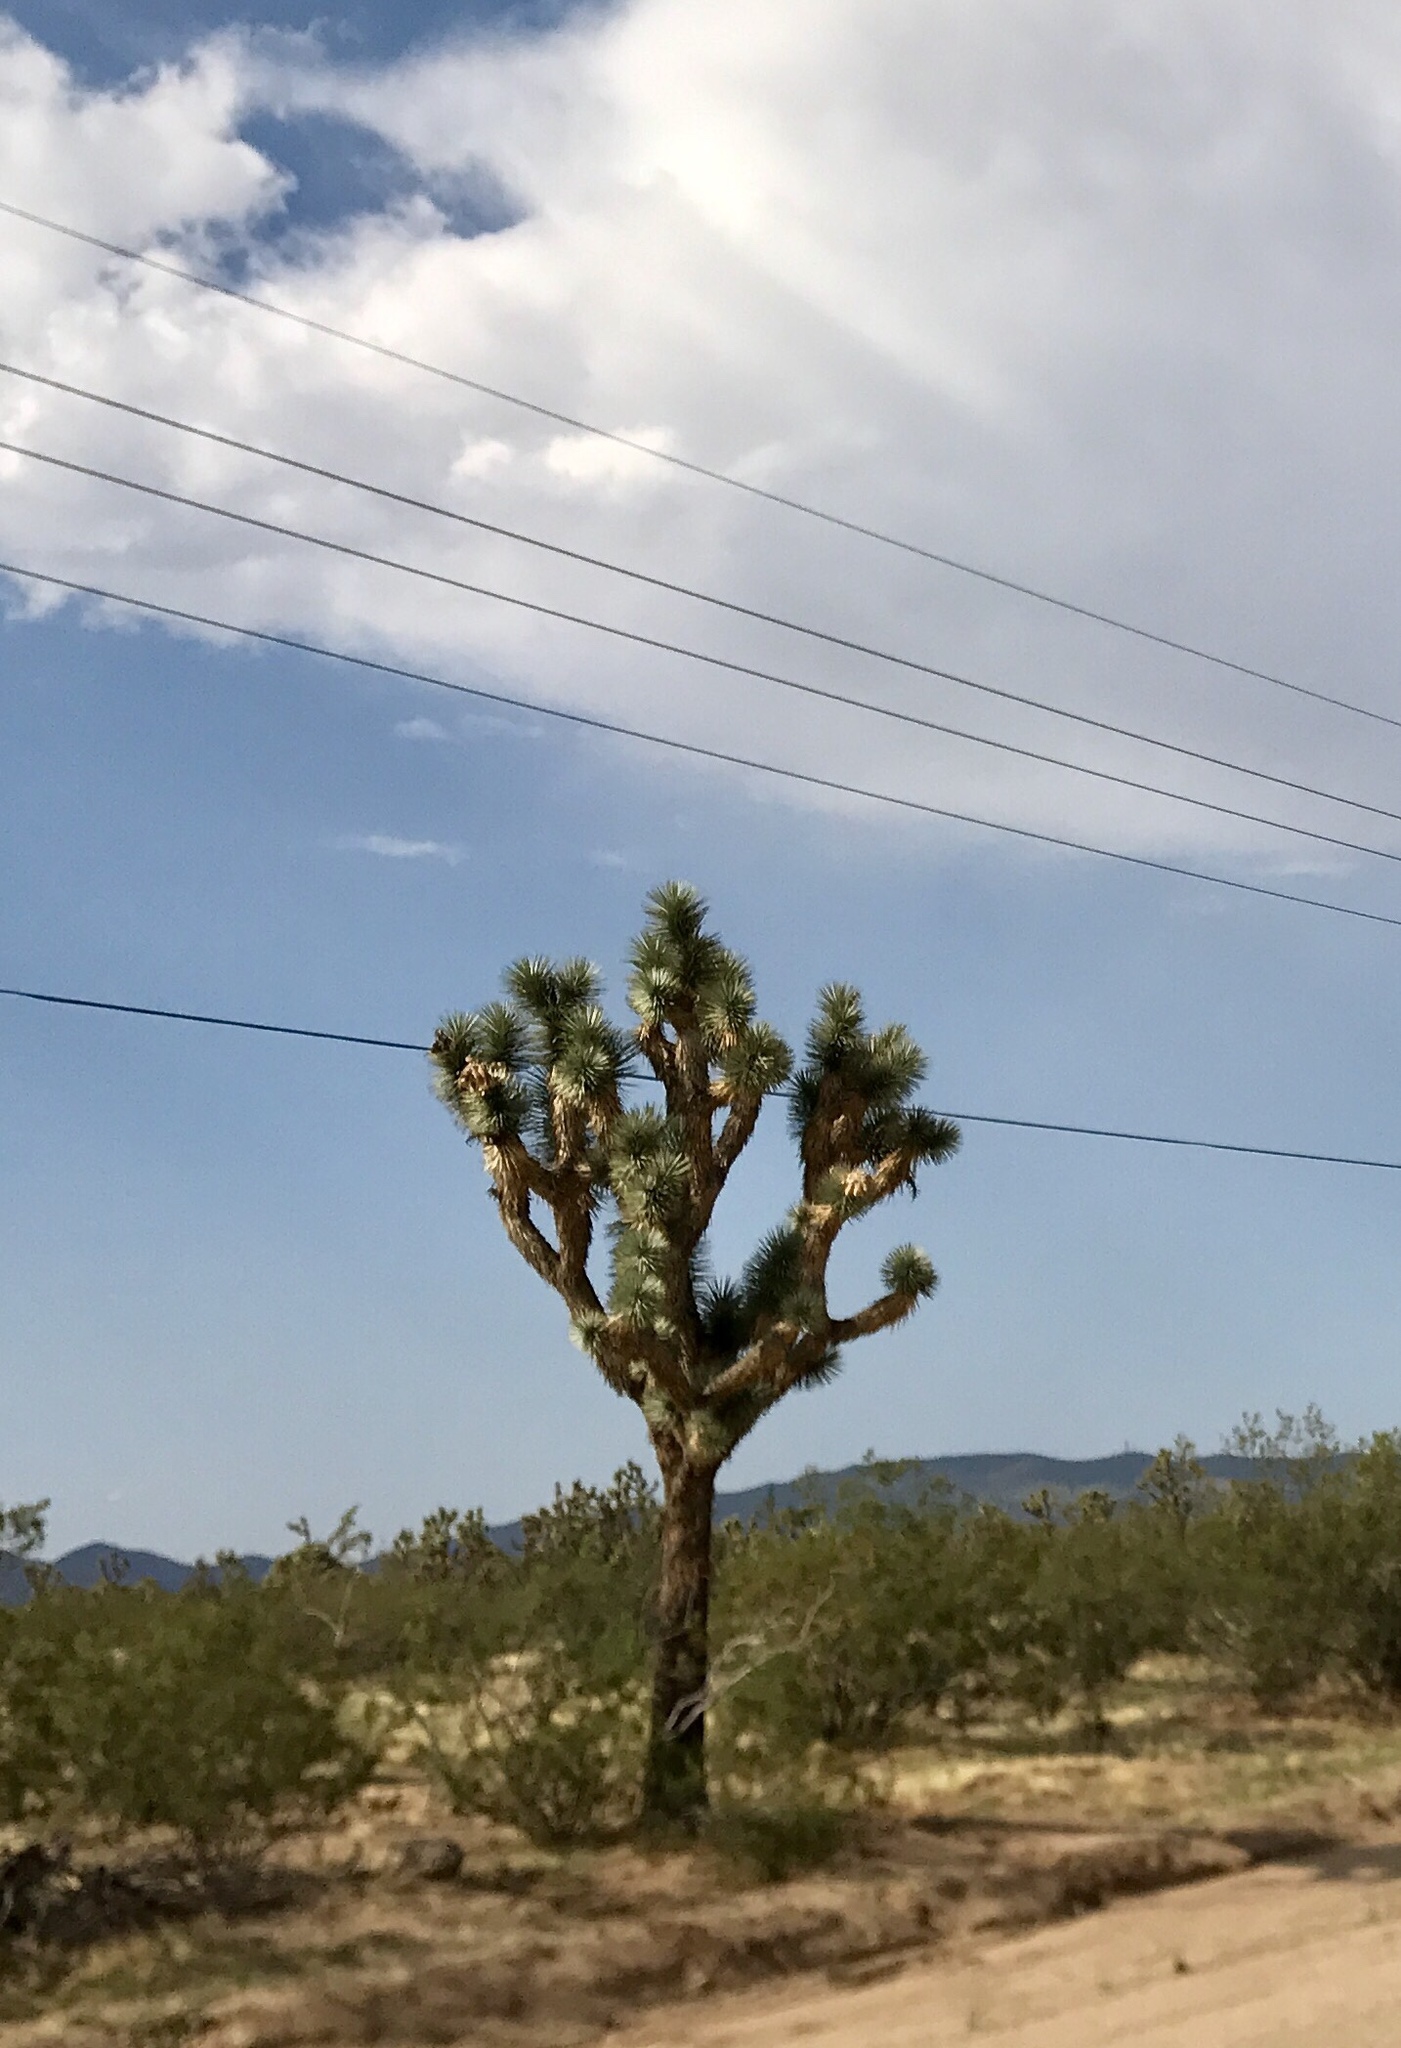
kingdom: Plantae
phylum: Tracheophyta
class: Liliopsida
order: Asparagales
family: Asparagaceae
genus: Yucca
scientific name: Yucca brevifolia
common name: Joshua tree
